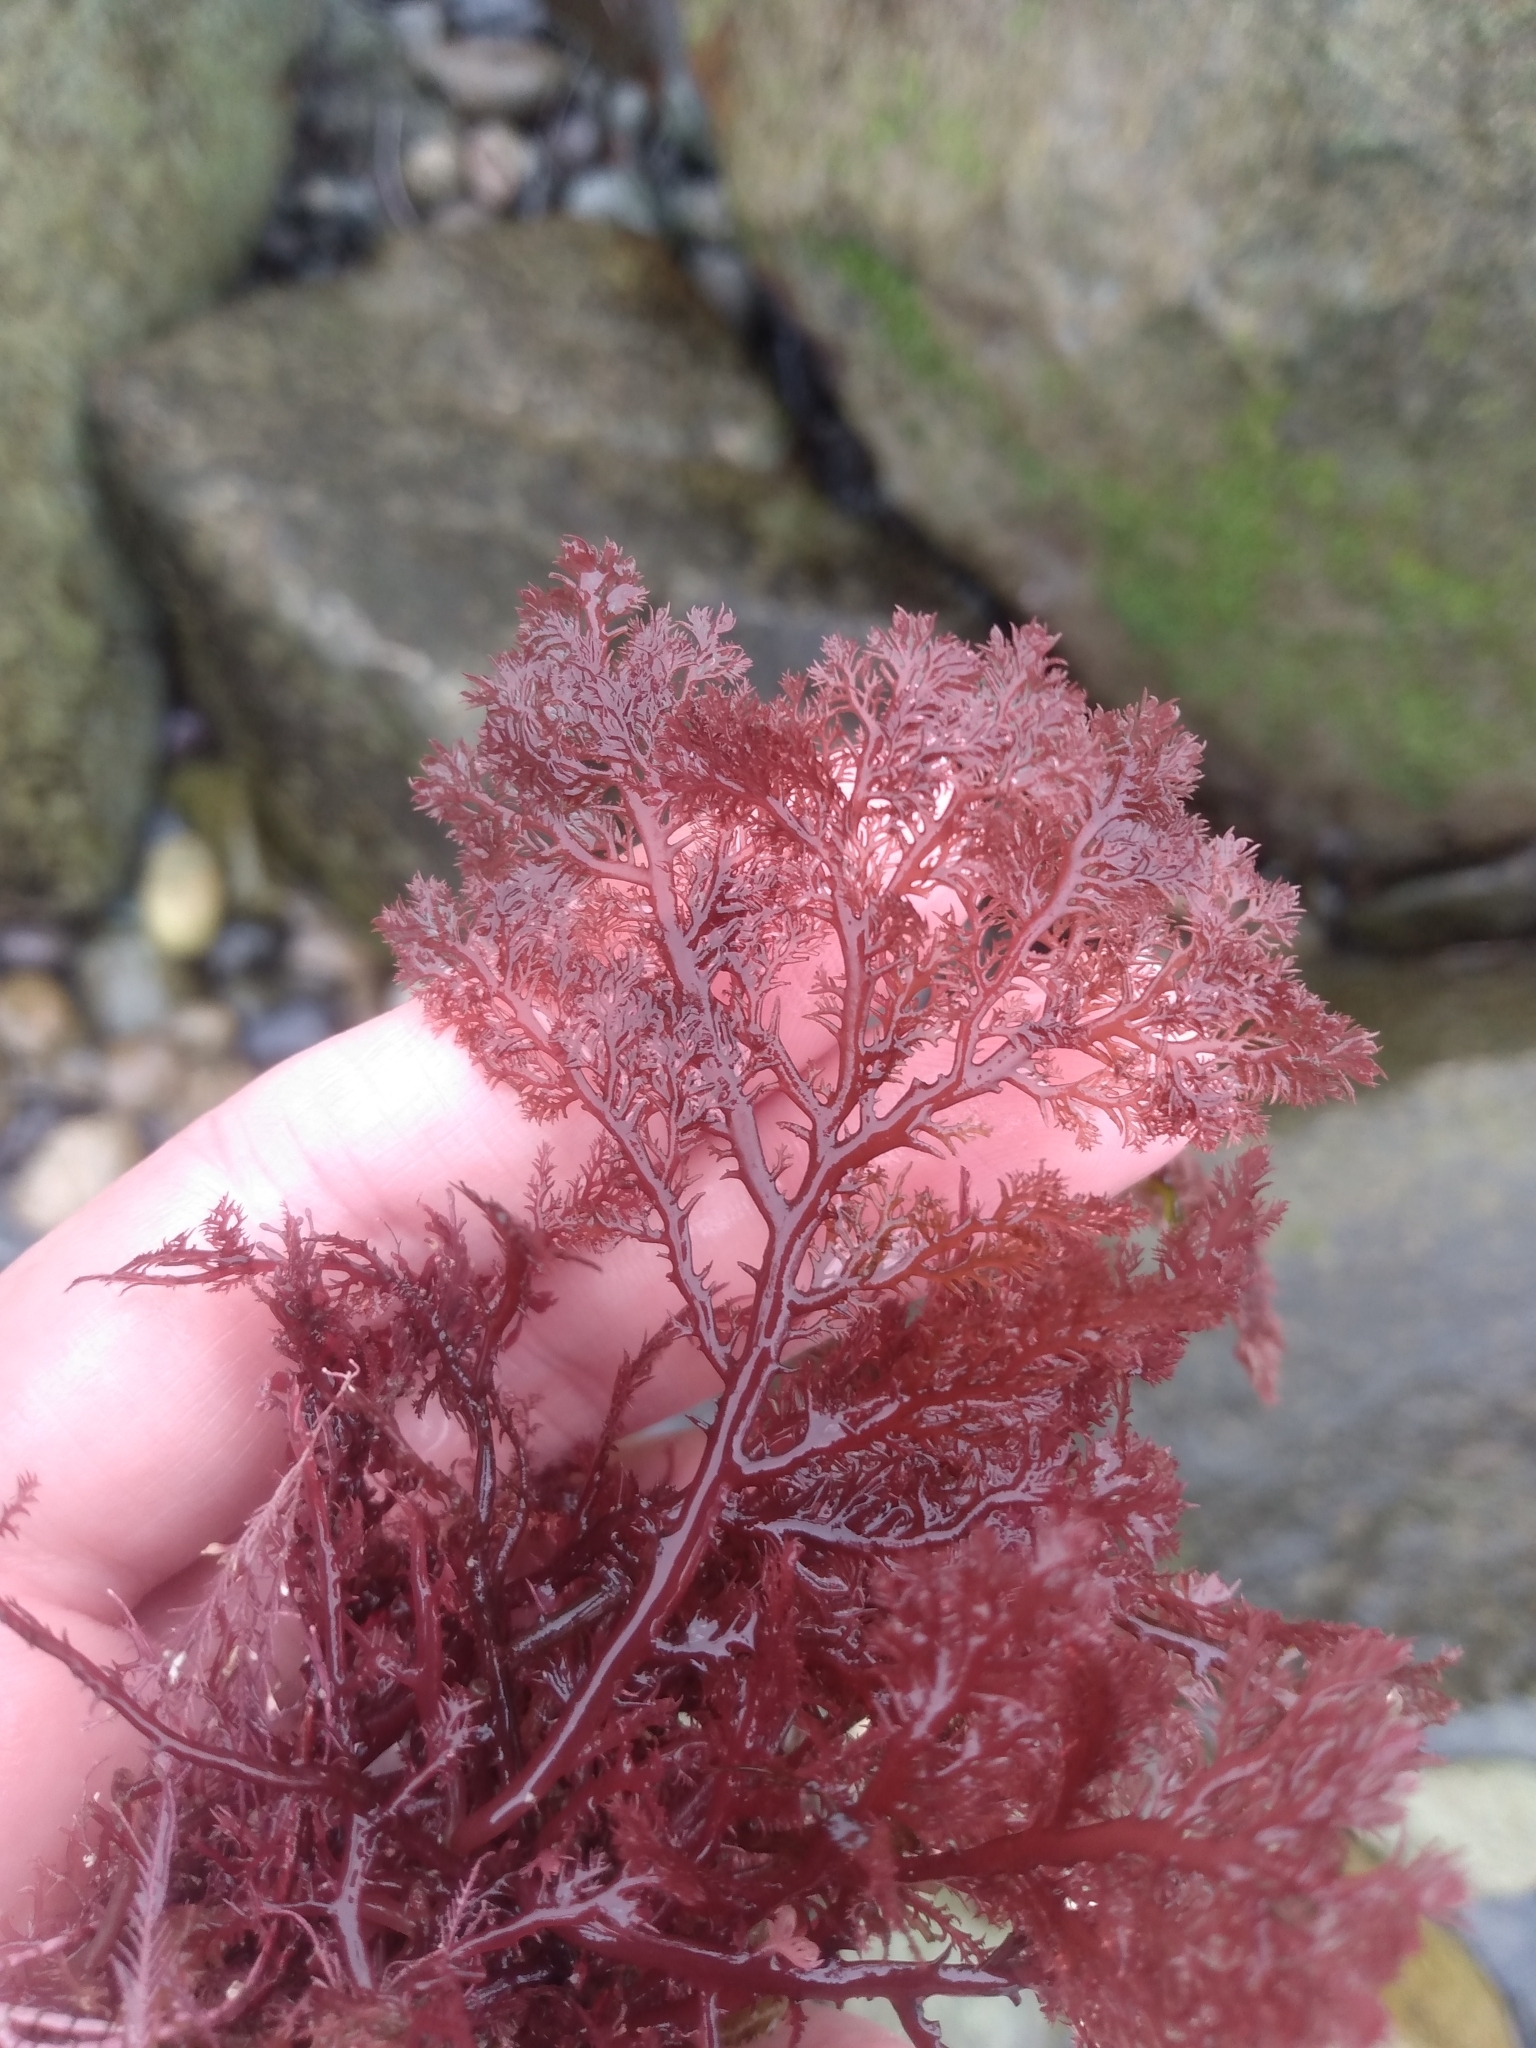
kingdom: Plantae
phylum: Rhodophyta
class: Florideophyceae
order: Plocamiales
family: Plocamiaceae
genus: Plocamium
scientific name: Plocamium cartilagineum
